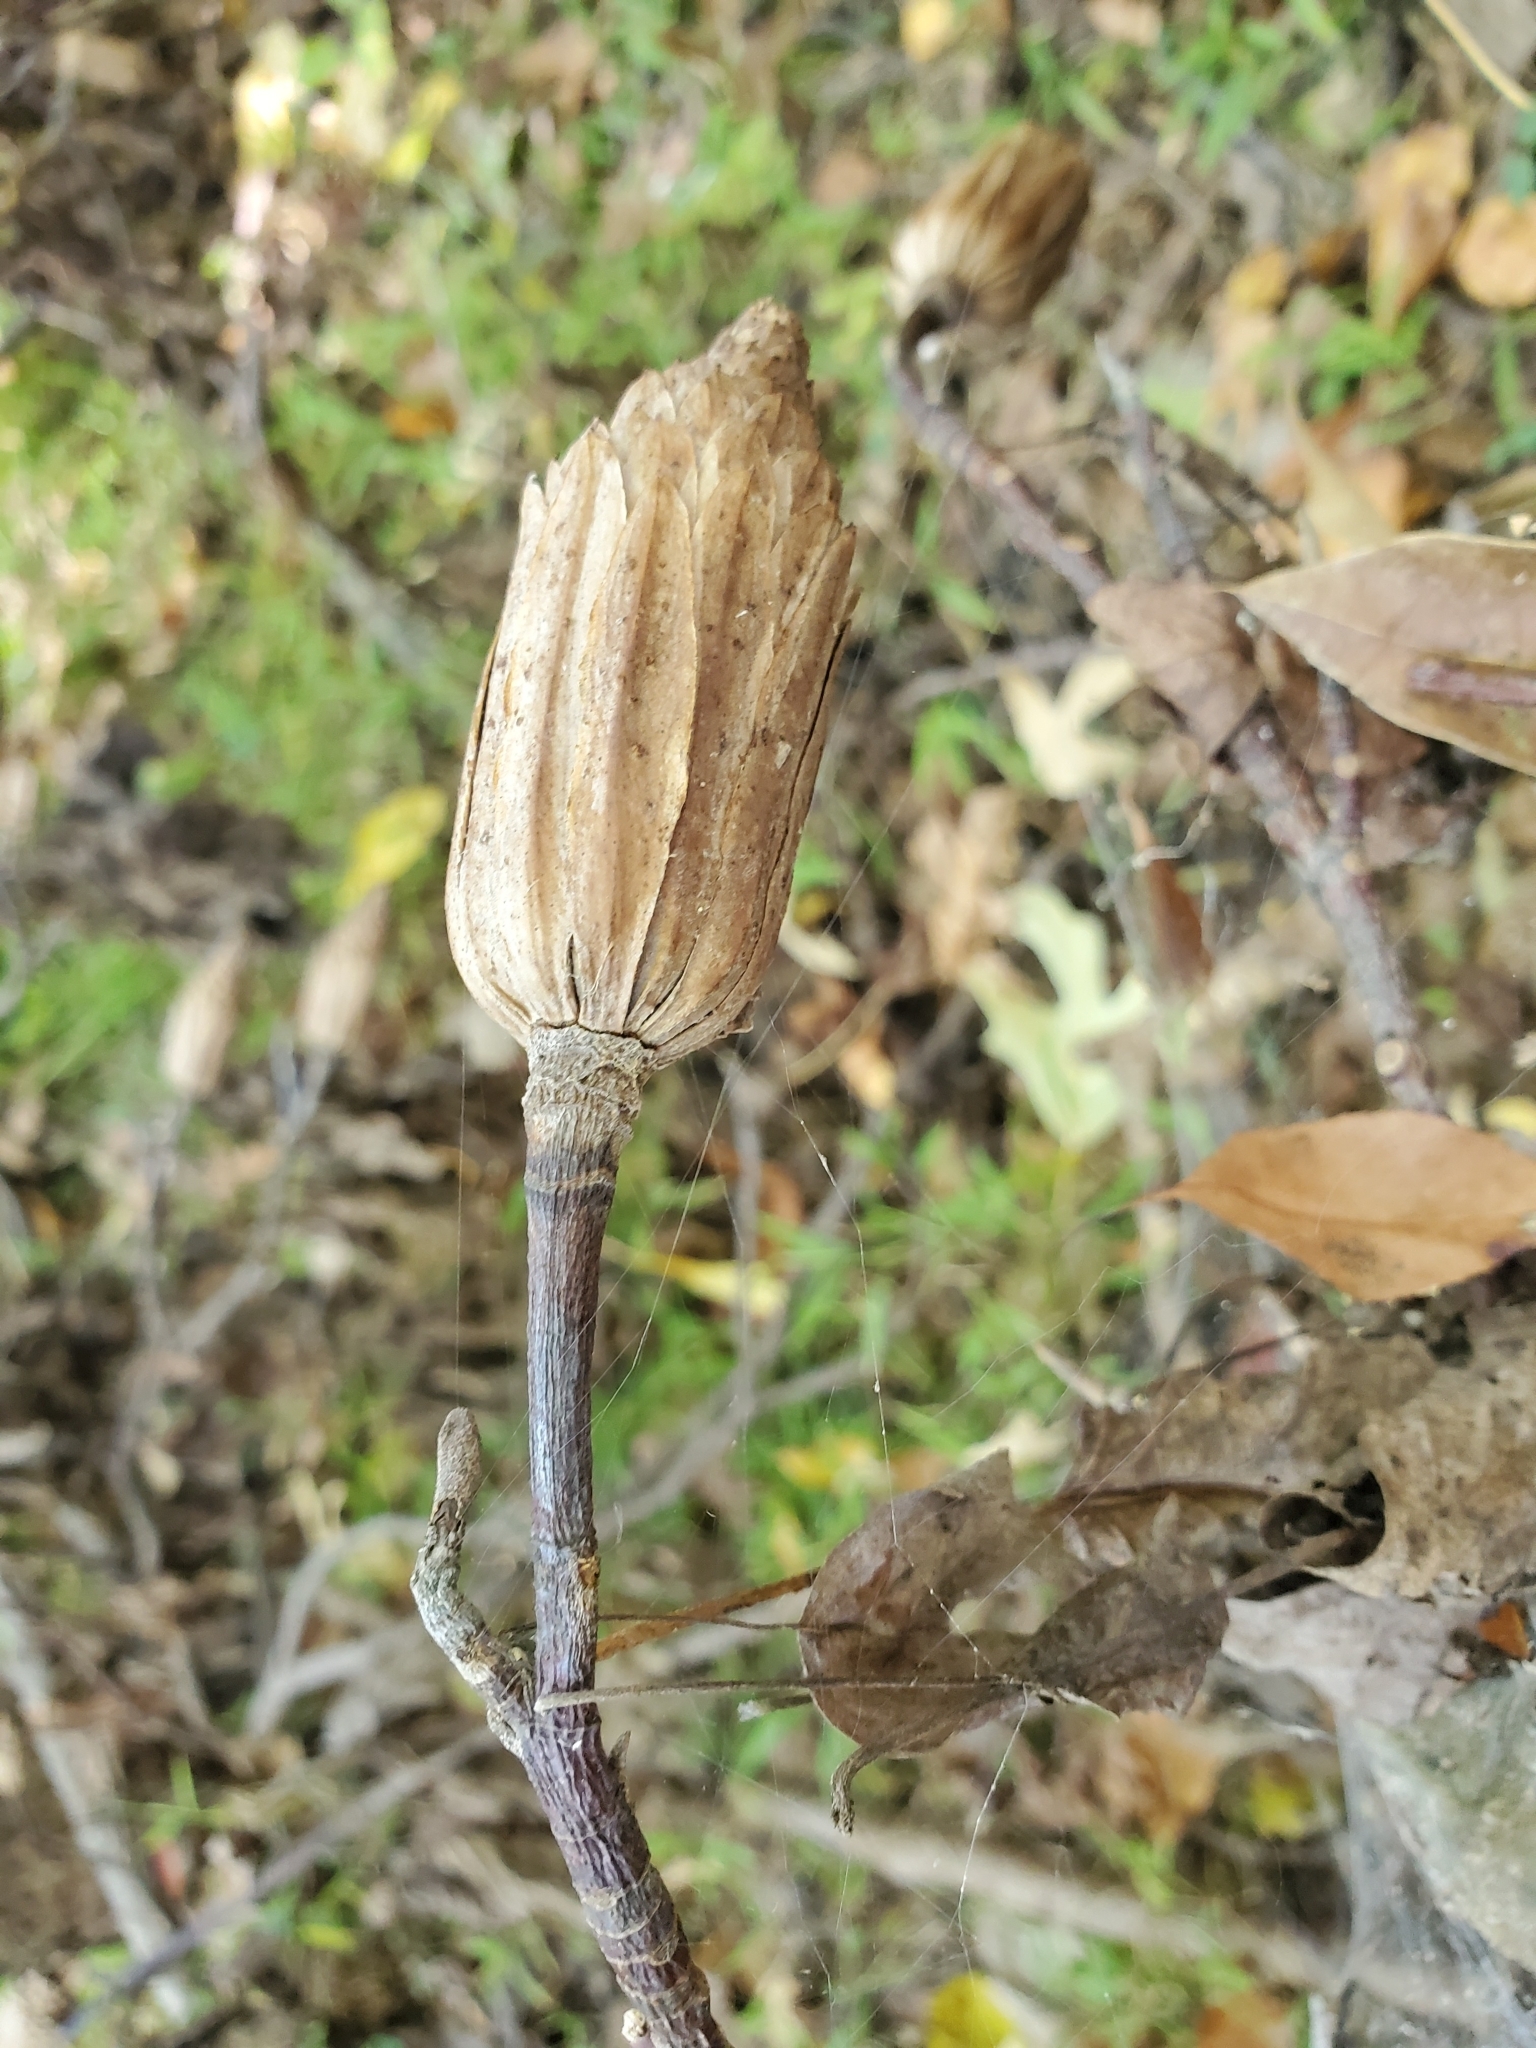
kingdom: Plantae
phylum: Tracheophyta
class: Magnoliopsida
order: Magnoliales
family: Magnoliaceae
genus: Liriodendron
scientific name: Liriodendron tulipifera
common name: Tulip tree
